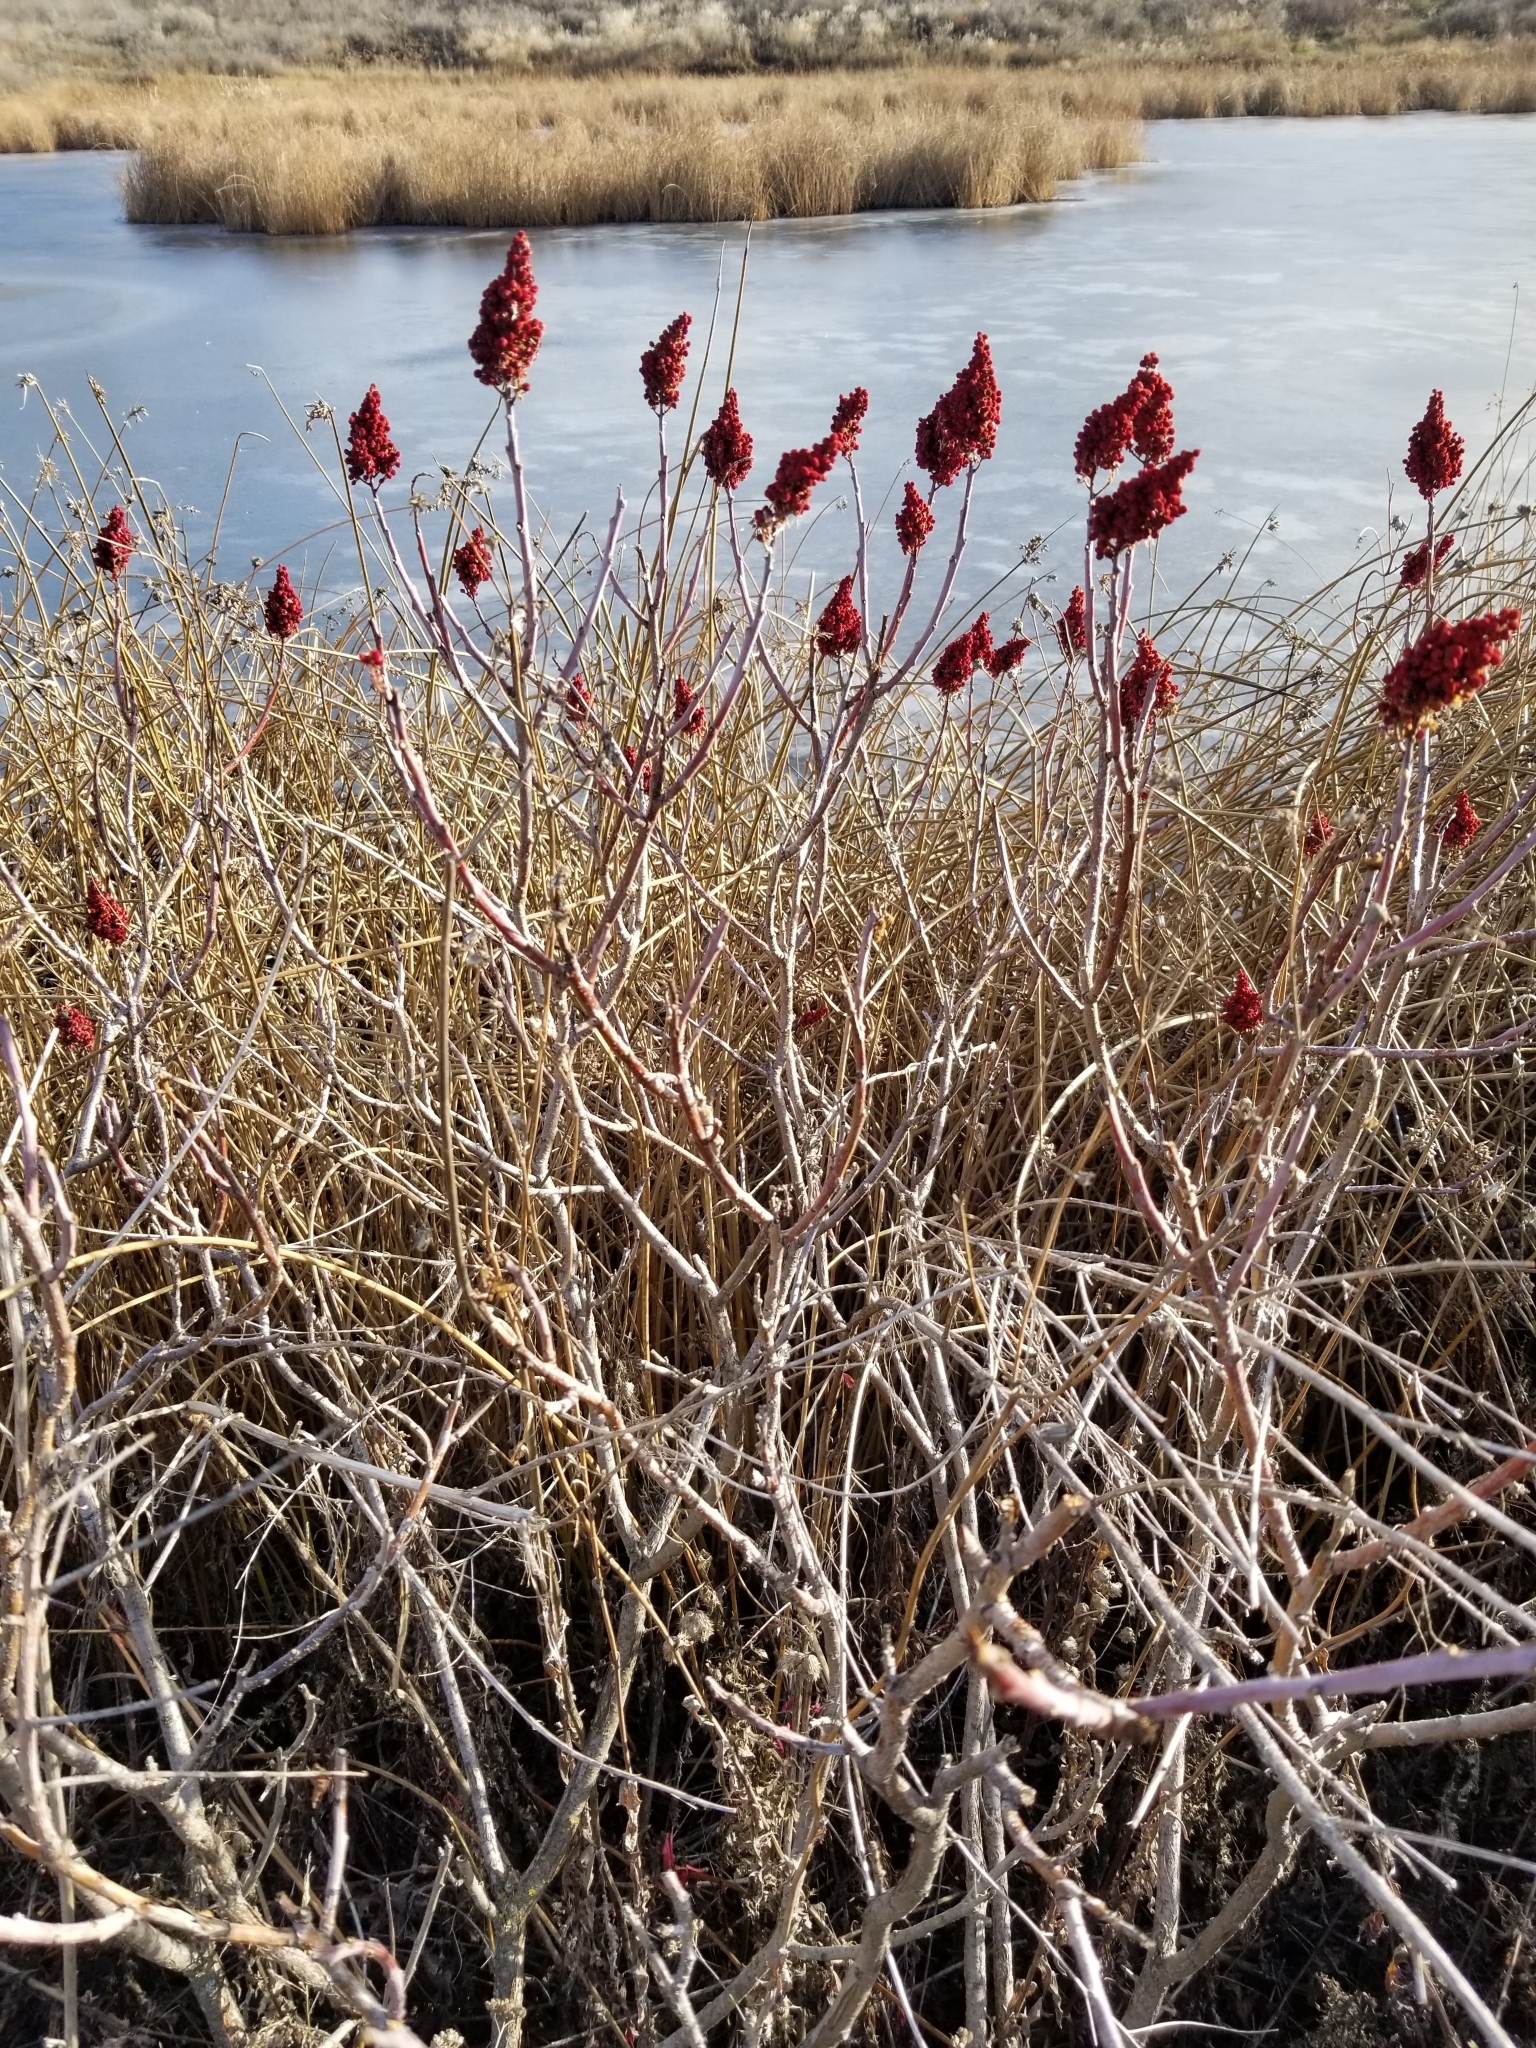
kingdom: Plantae
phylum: Tracheophyta
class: Magnoliopsida
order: Sapindales
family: Anacardiaceae
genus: Rhus
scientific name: Rhus glabra
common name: Scarlet sumac
